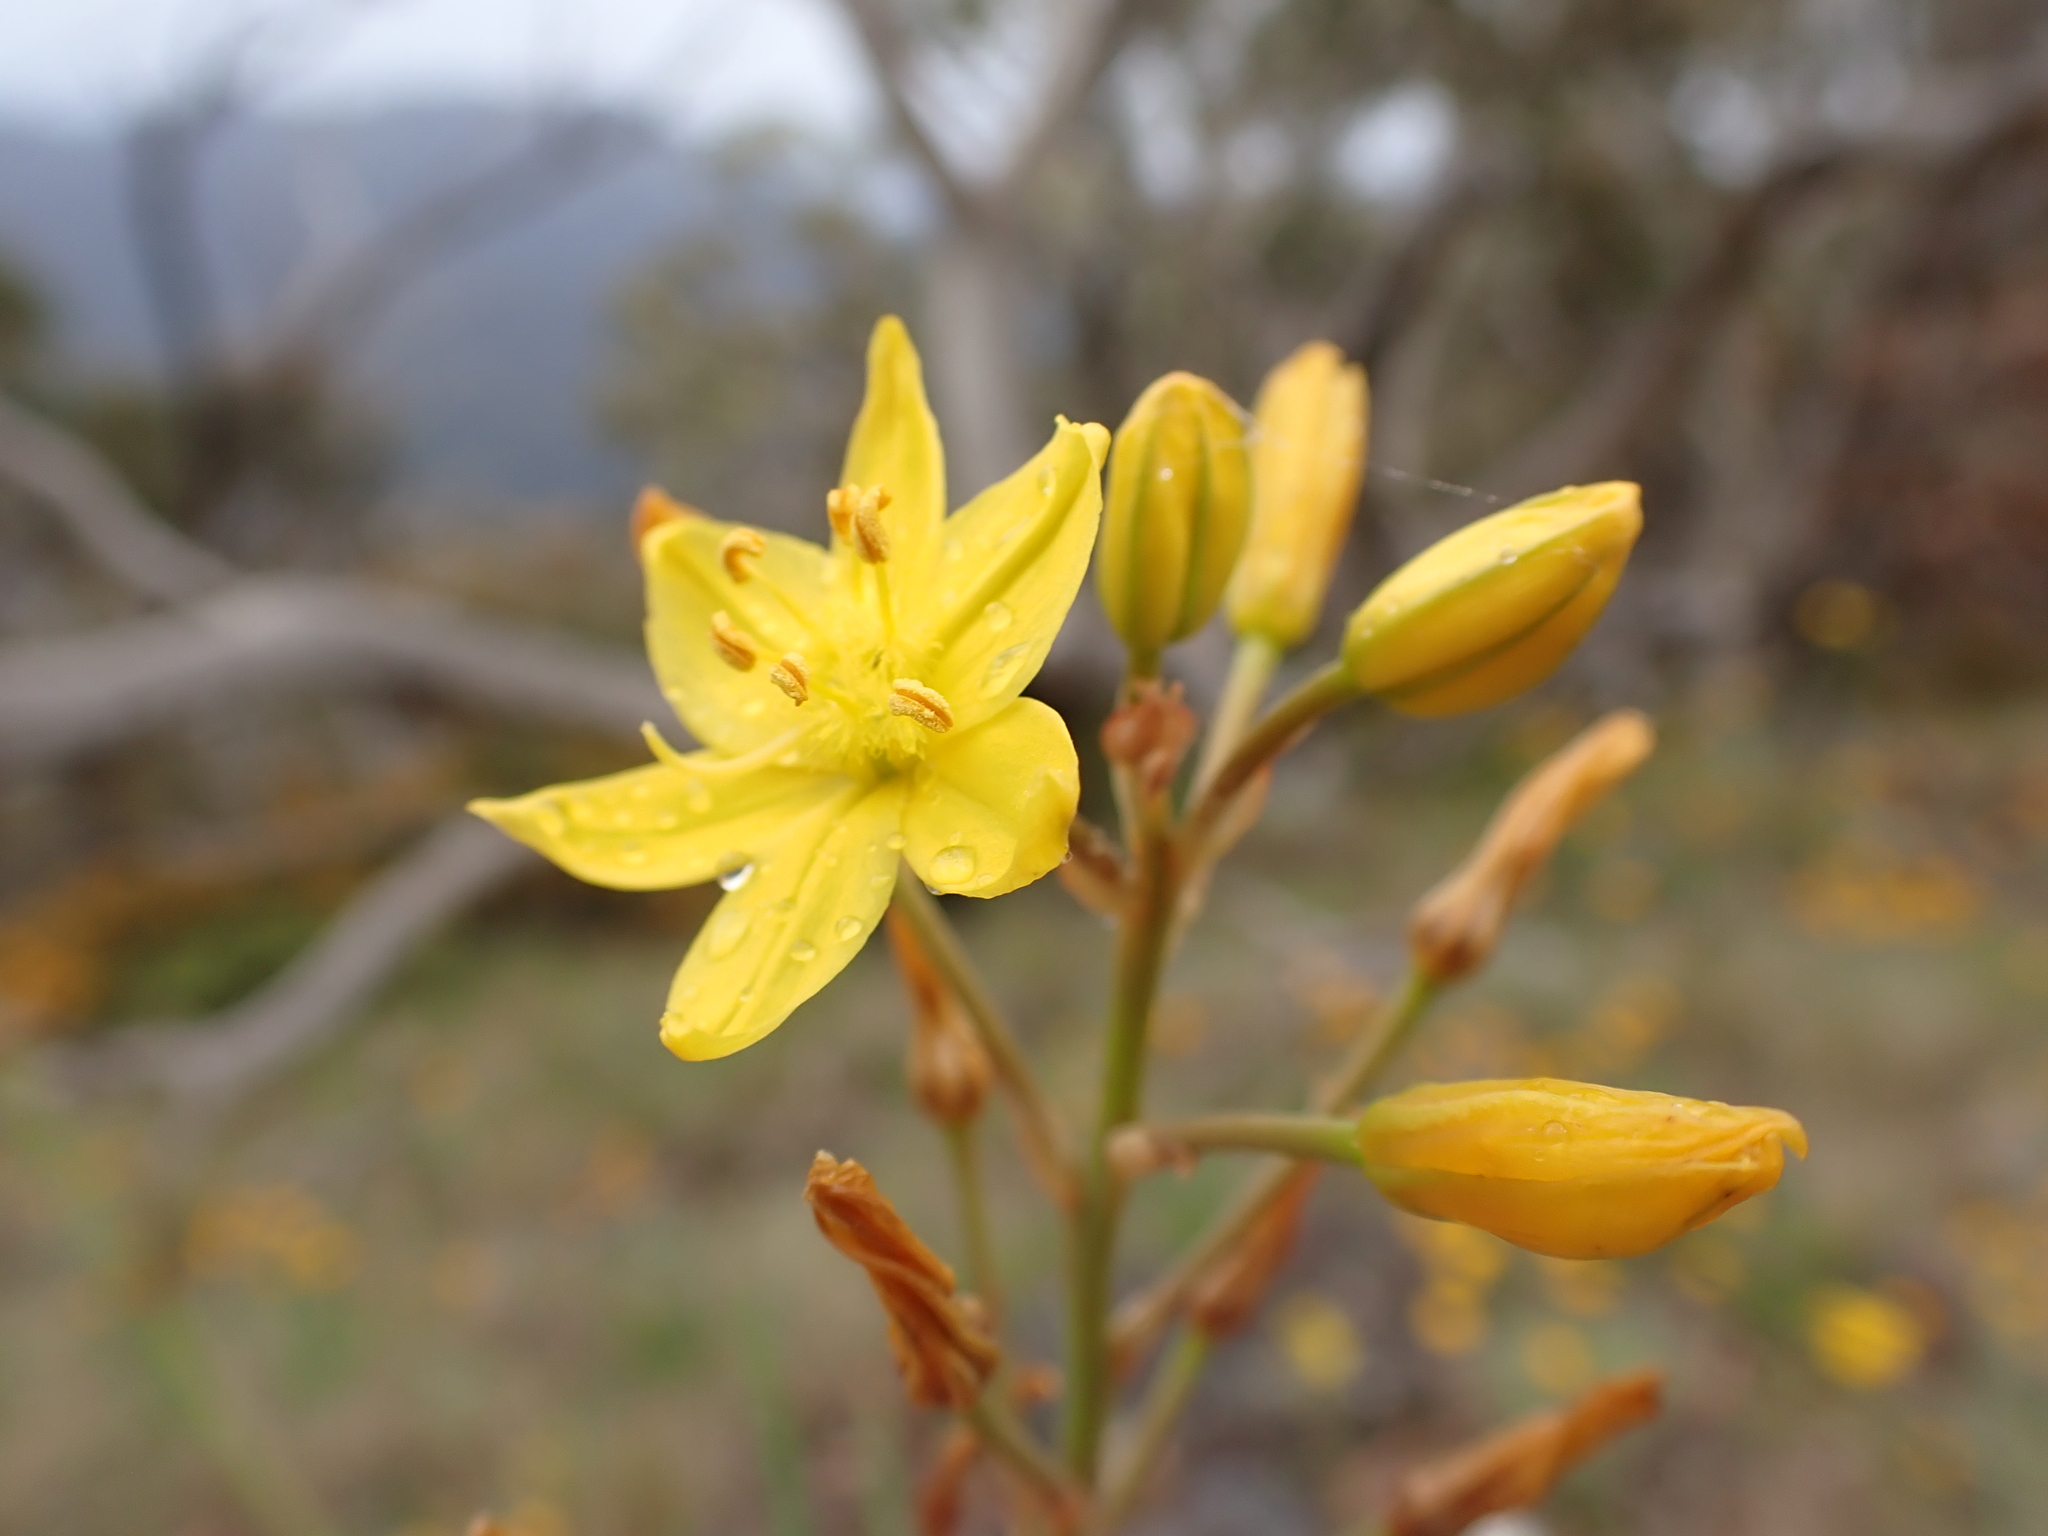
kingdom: Plantae
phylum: Tracheophyta
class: Liliopsida
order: Asparagales
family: Asphodelaceae
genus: Bulbine
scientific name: Bulbine glauca
